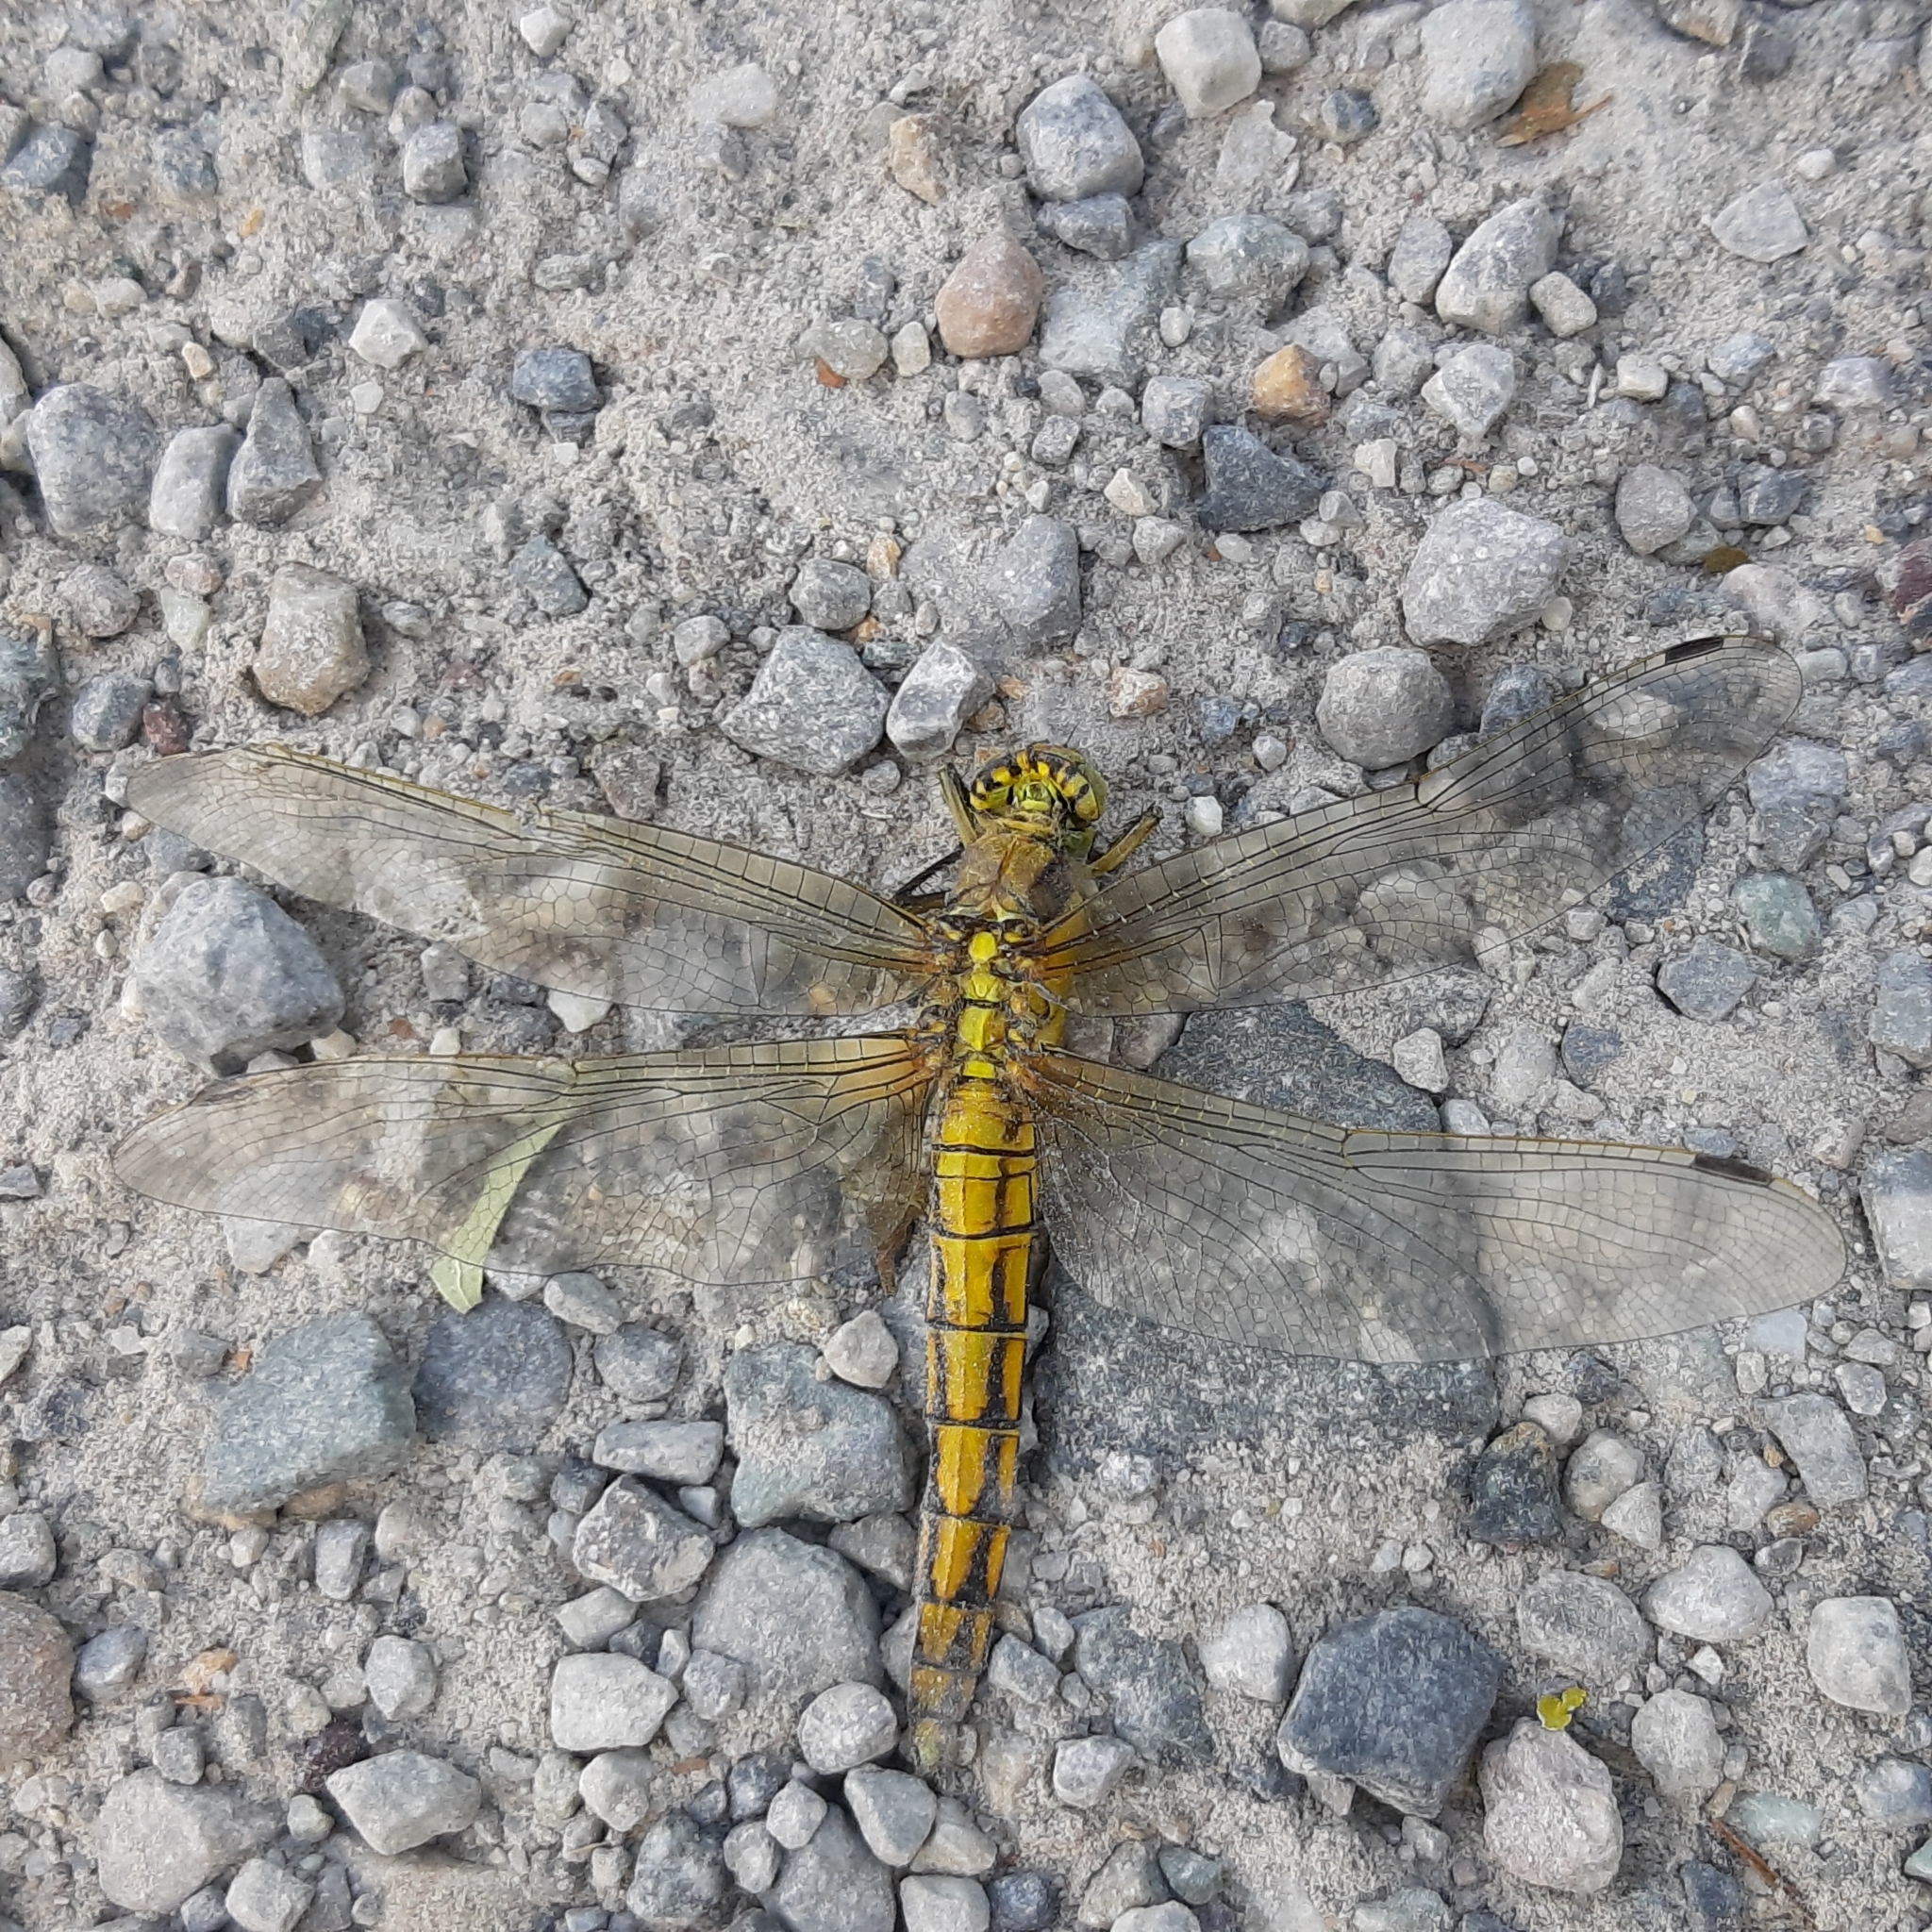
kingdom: Animalia
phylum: Arthropoda
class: Insecta
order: Odonata
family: Libellulidae
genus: Orthetrum
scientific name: Orthetrum cancellatum
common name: Black-tailed skimmer
